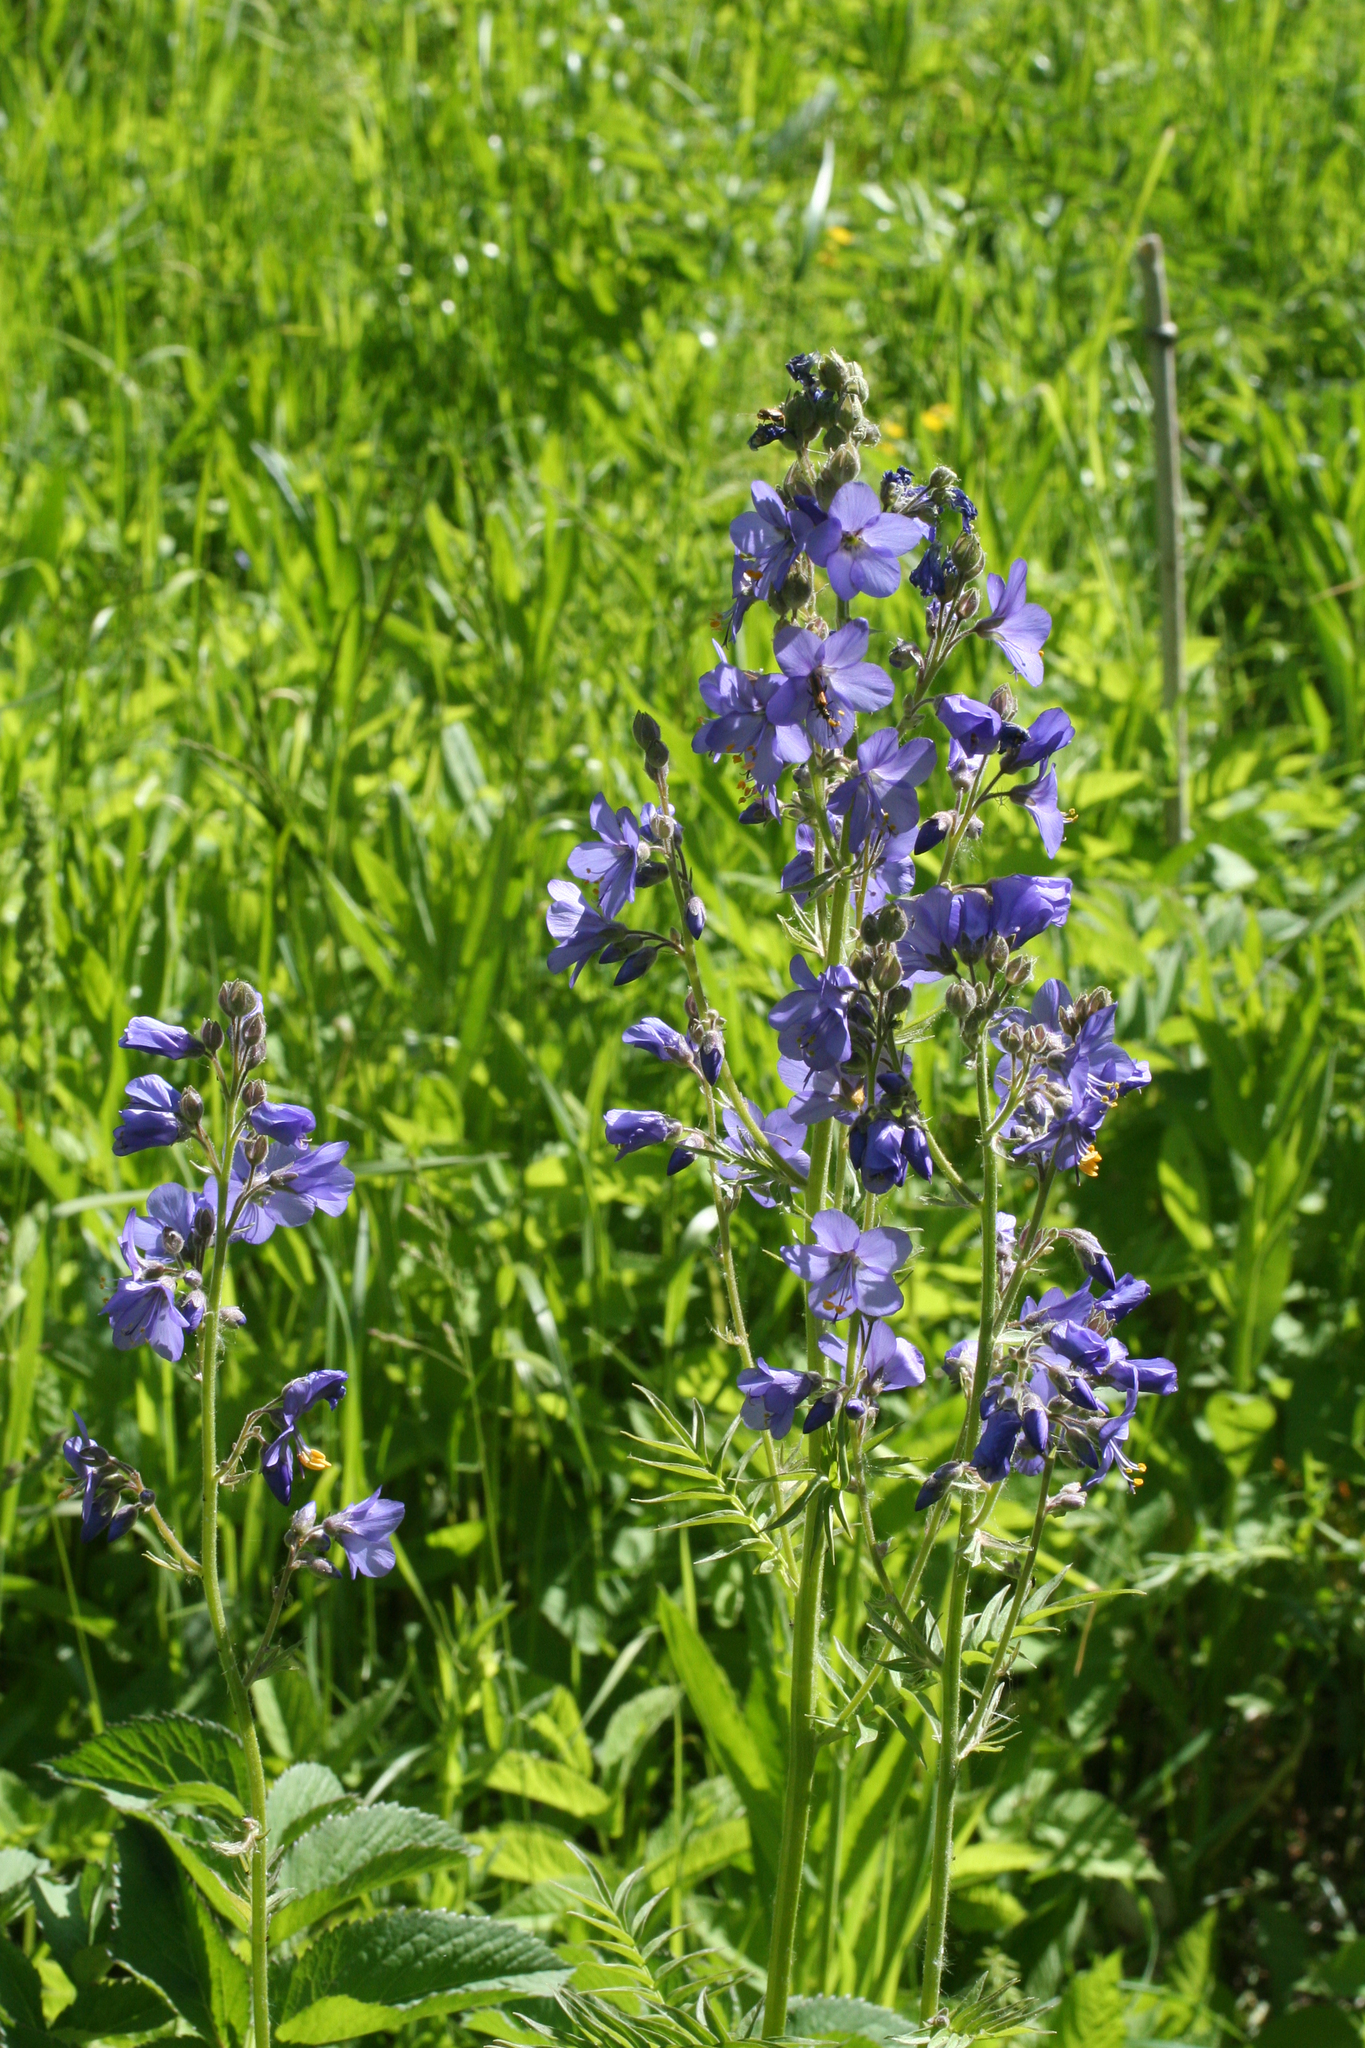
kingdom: Plantae
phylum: Tracheophyta
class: Magnoliopsida
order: Ericales
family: Polemoniaceae
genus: Polemonium
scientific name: Polemonium caeruleum
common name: Jacob's-ladder
